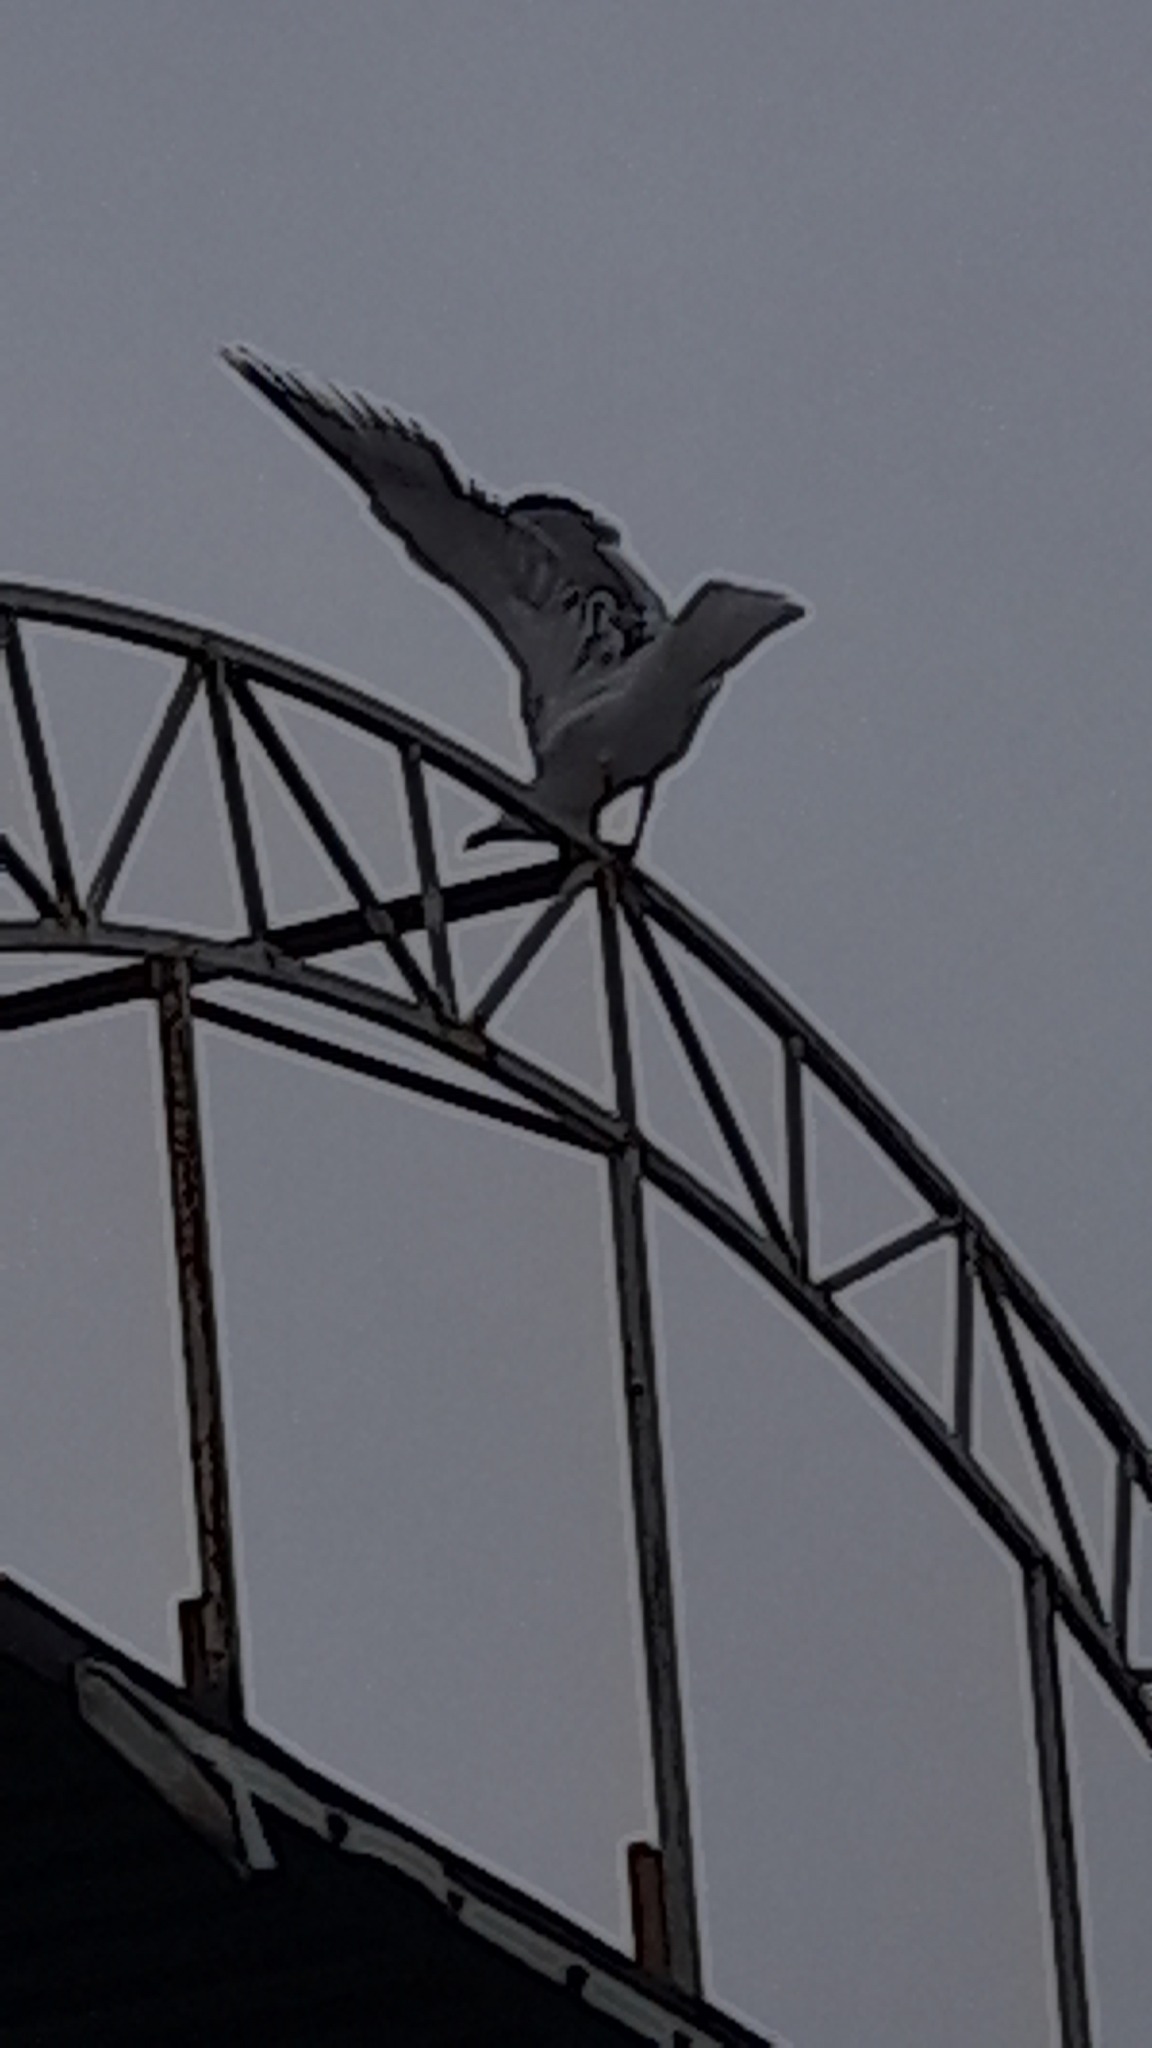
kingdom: Animalia
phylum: Chordata
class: Aves
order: Charadriiformes
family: Laridae
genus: Larus
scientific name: Larus cachinnans
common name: Caspian gull
